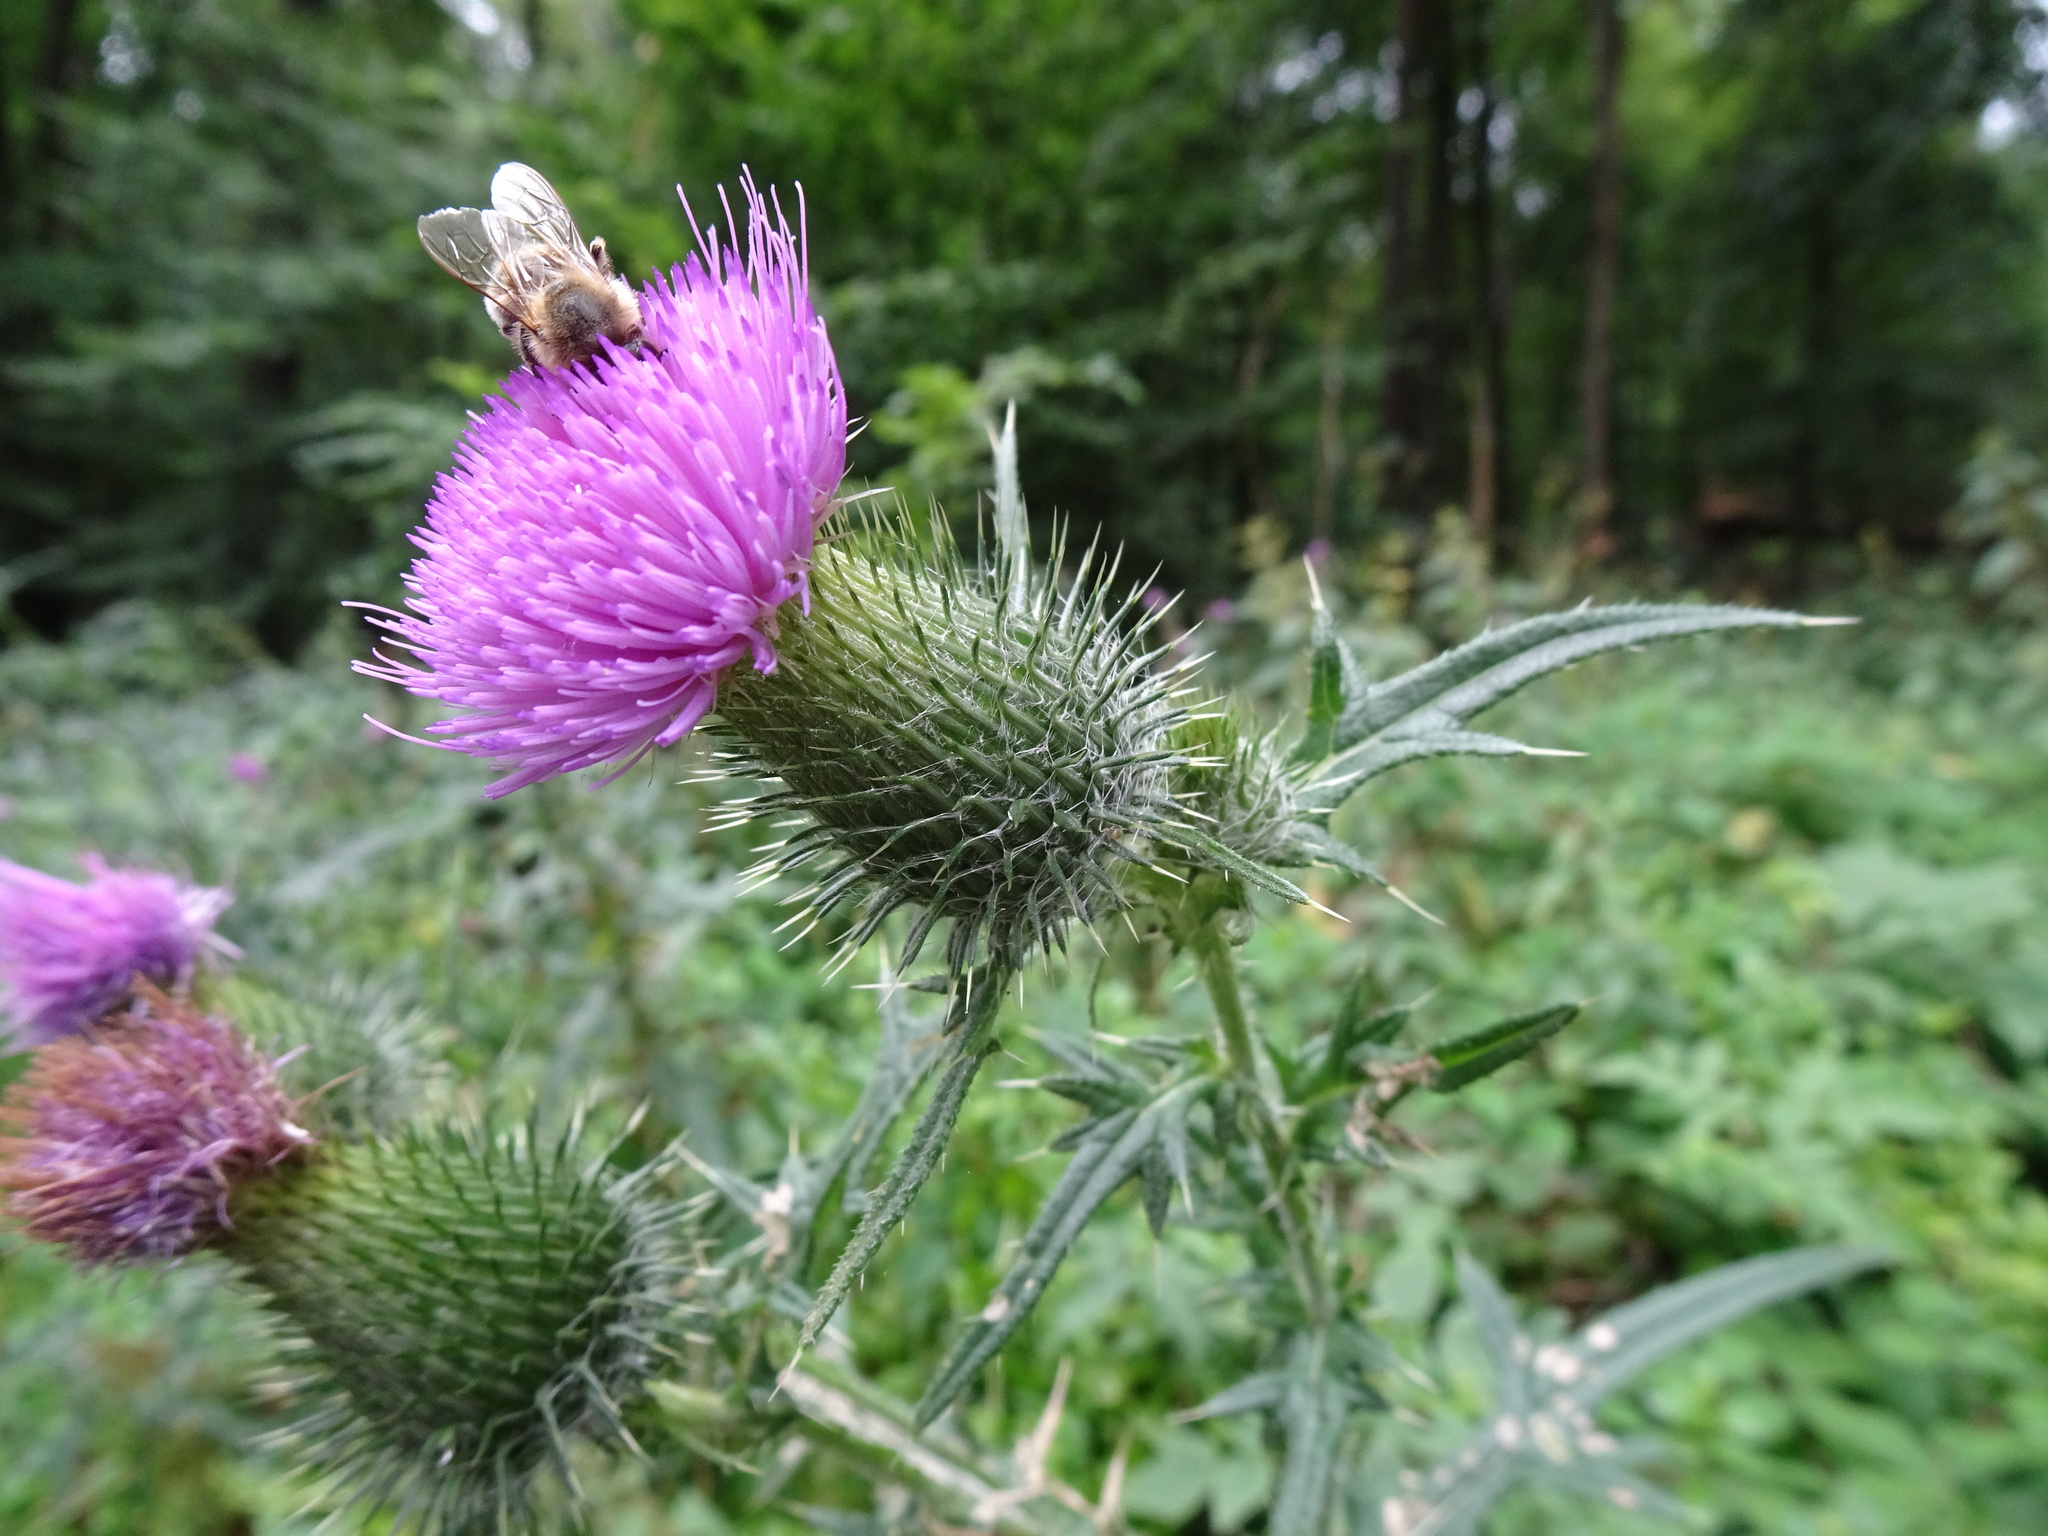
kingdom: Plantae
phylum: Tracheophyta
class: Magnoliopsida
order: Asterales
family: Asteraceae
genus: Cirsium
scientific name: Cirsium vulgare
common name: Bull thistle
